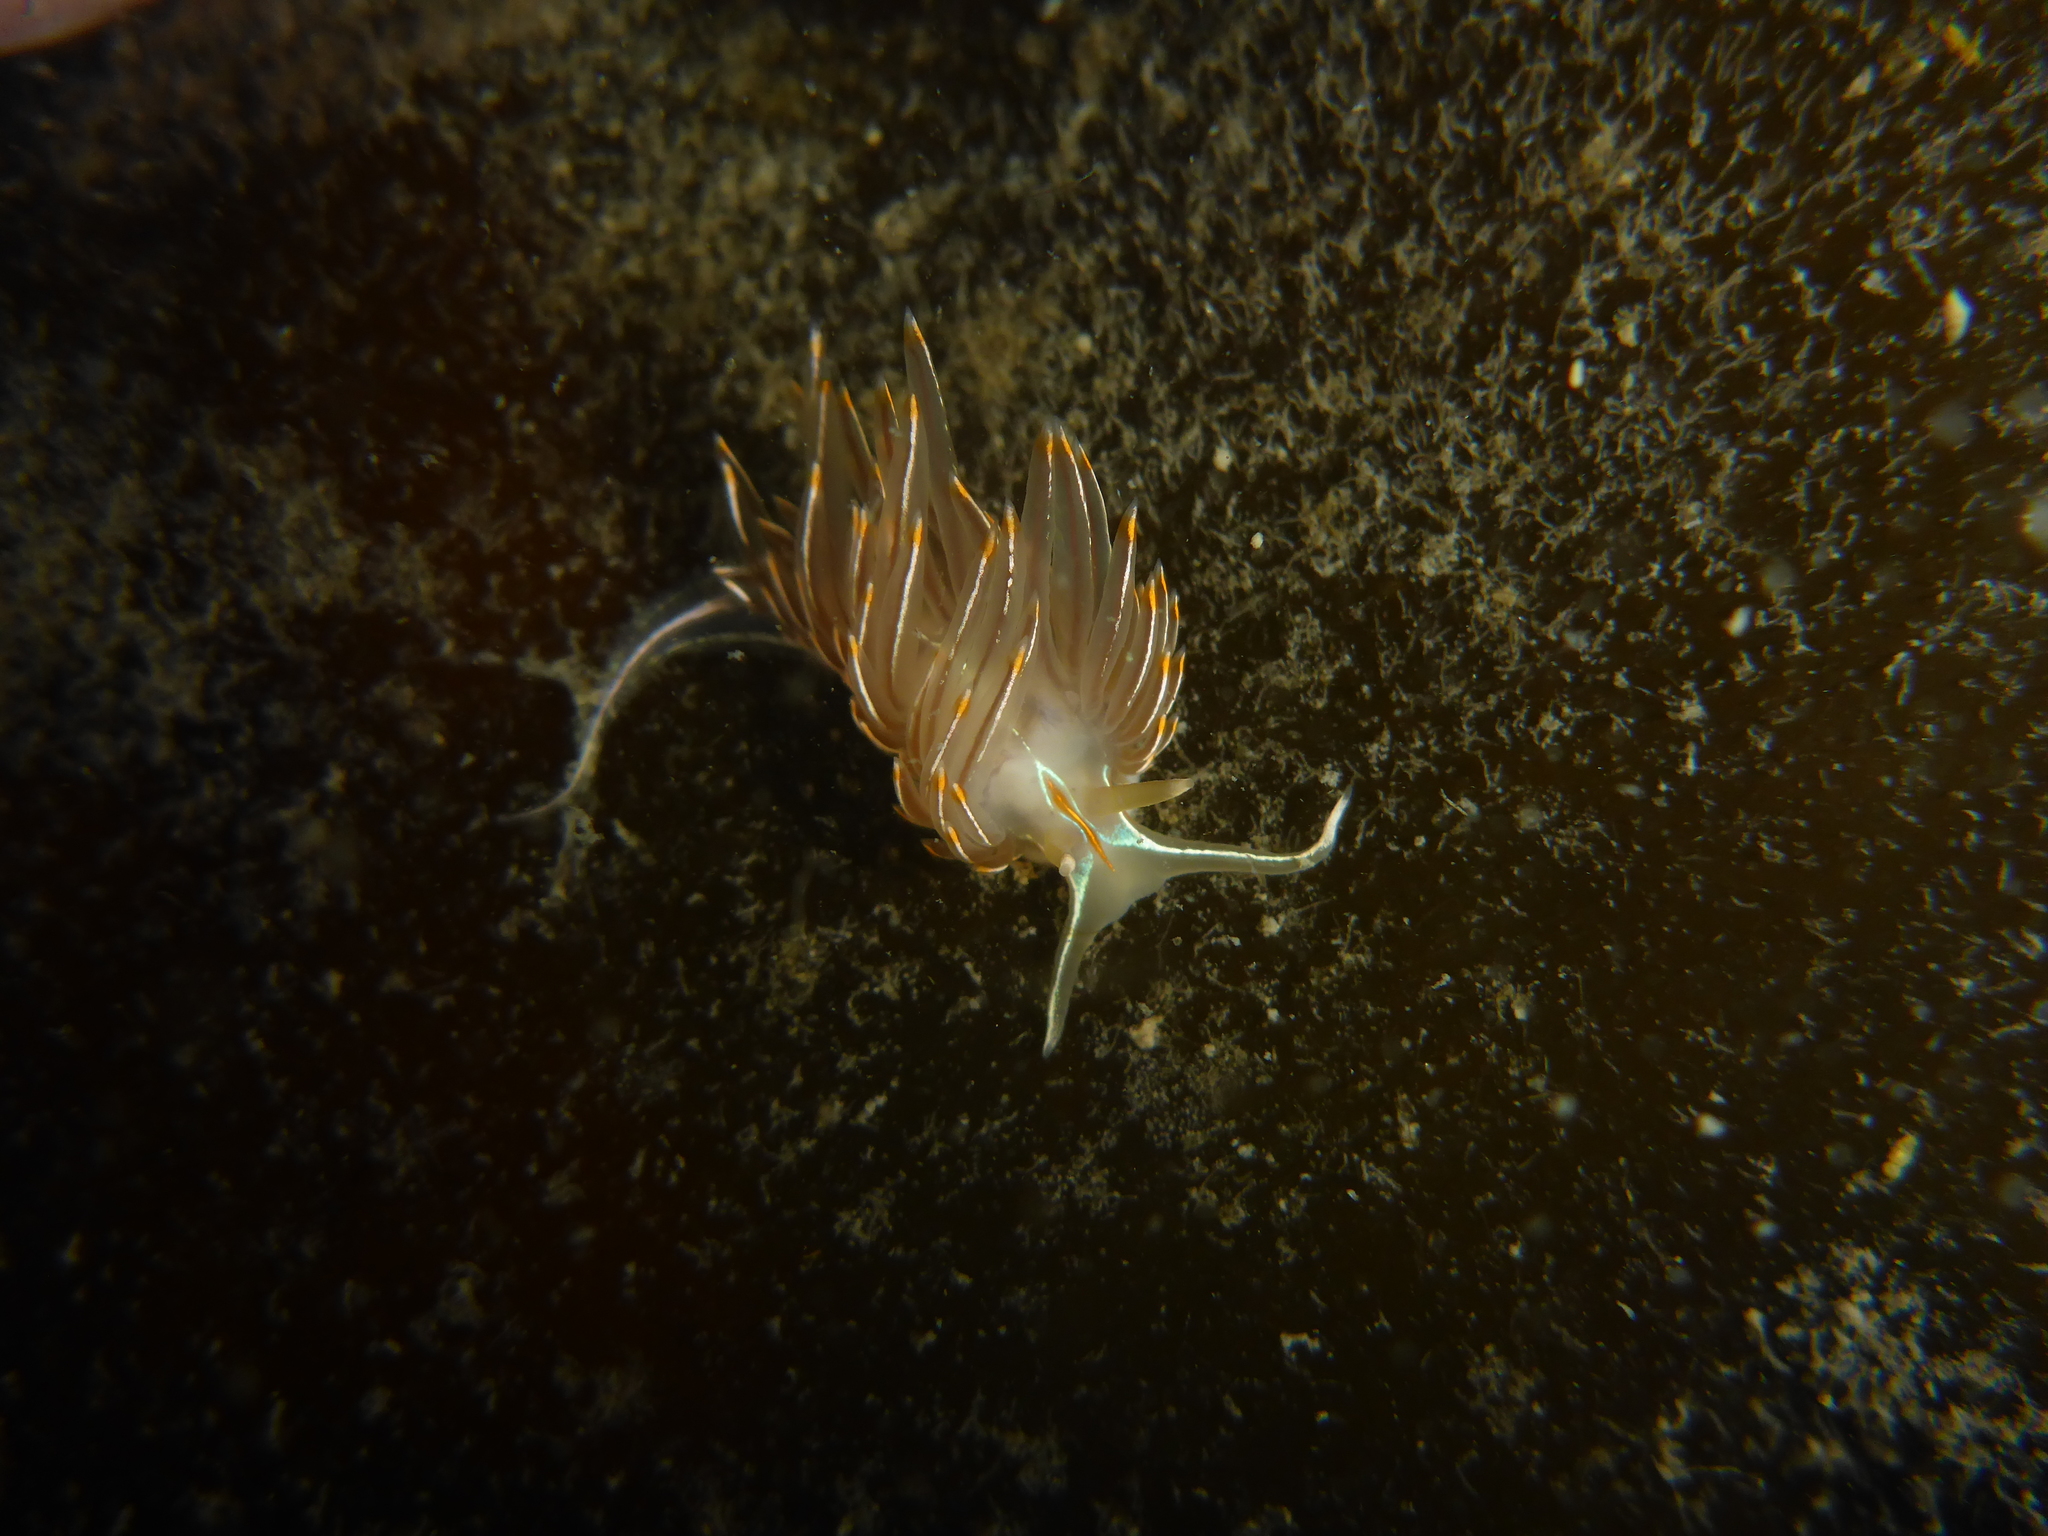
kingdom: Animalia
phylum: Mollusca
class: Gastropoda
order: Nudibranchia
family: Myrrhinidae
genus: Hermissenda
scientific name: Hermissenda crassicornis
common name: Hermissenda
